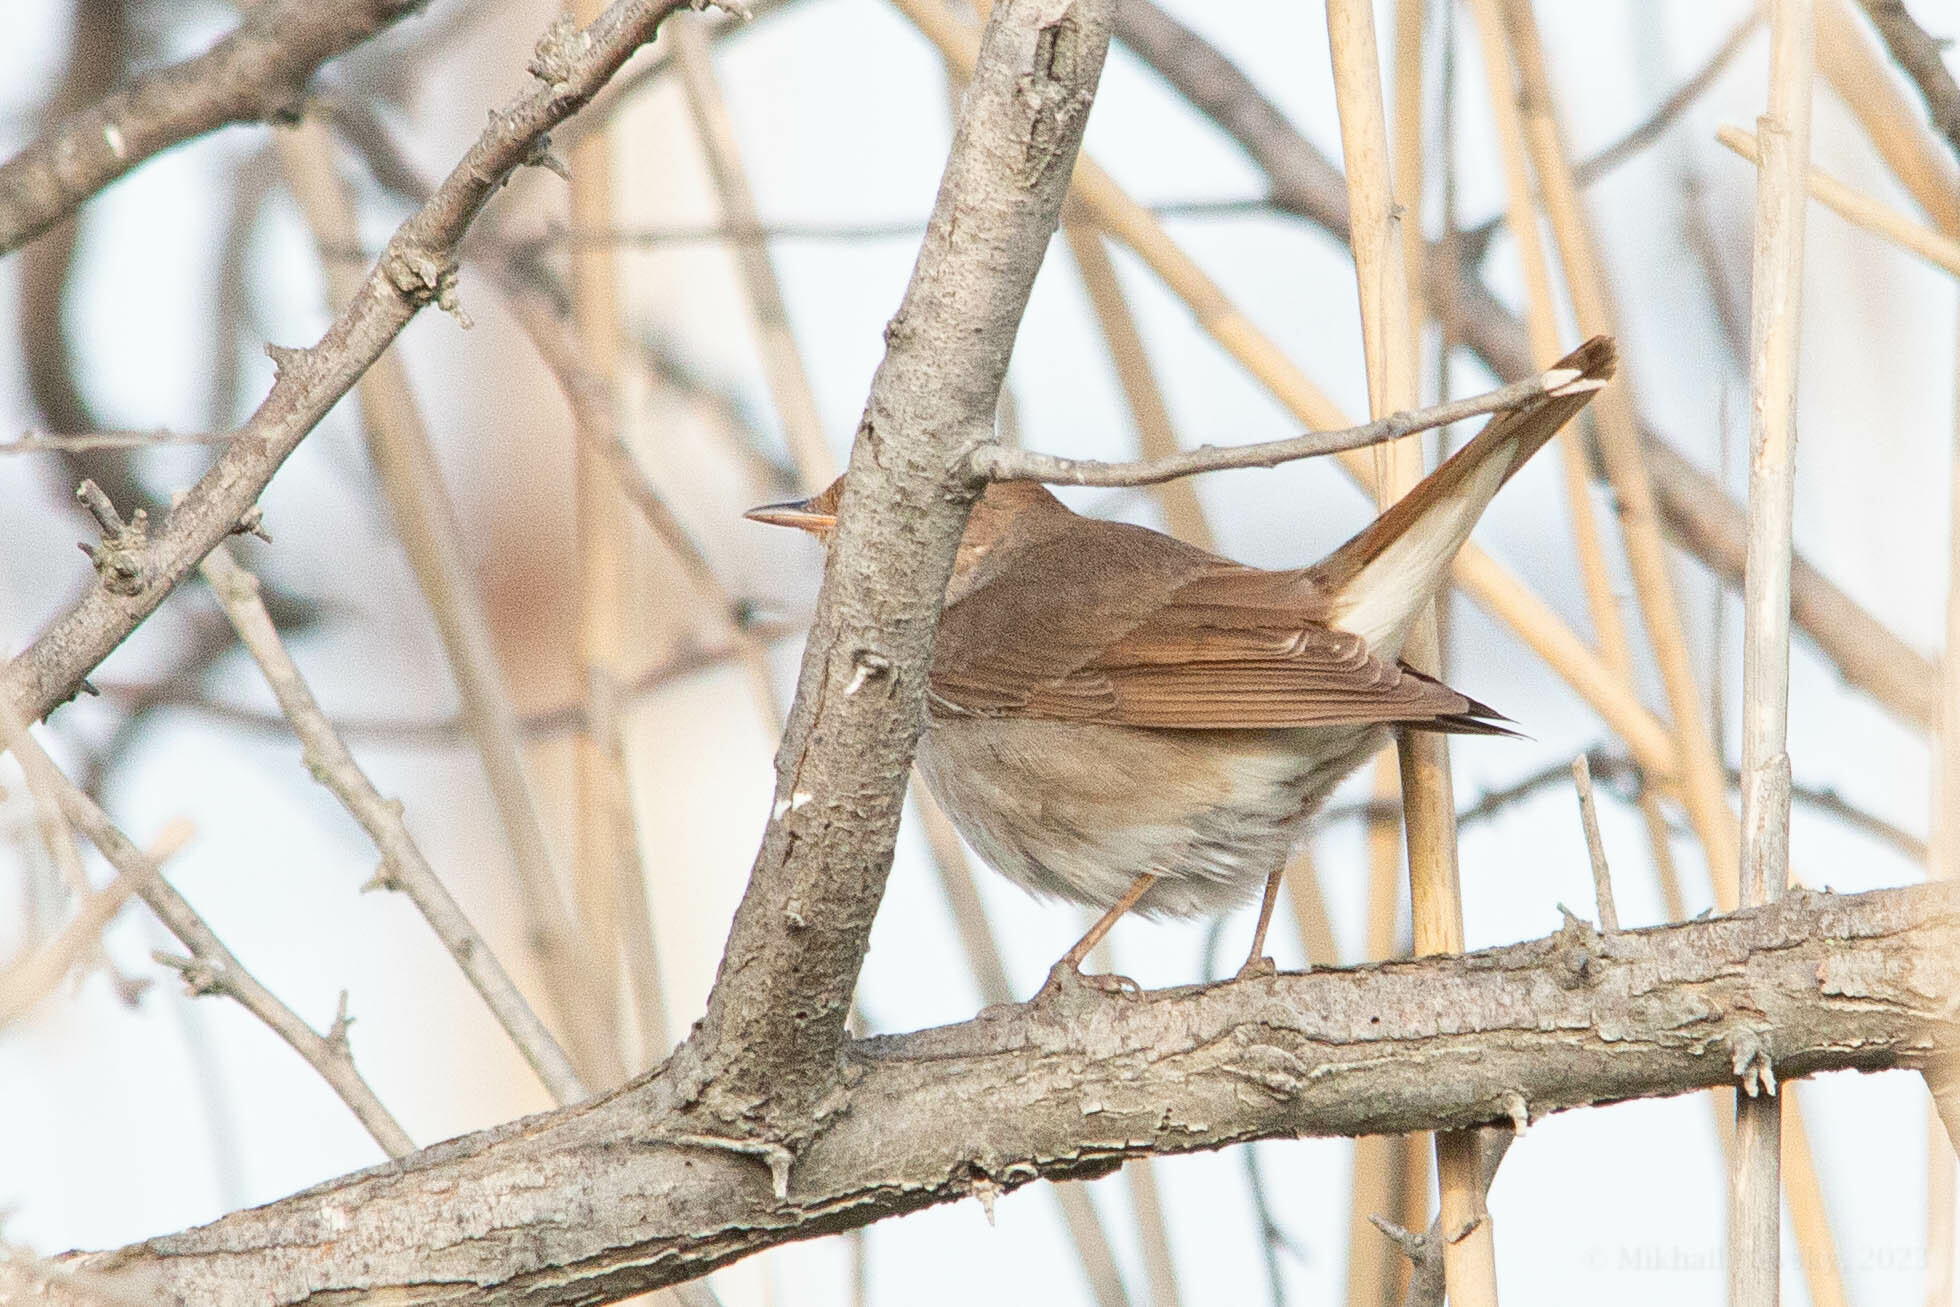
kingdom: Animalia
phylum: Chordata
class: Aves
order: Passeriformes
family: Muscicapidae
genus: Luscinia
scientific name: Luscinia megarhynchos
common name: Common nightingale
